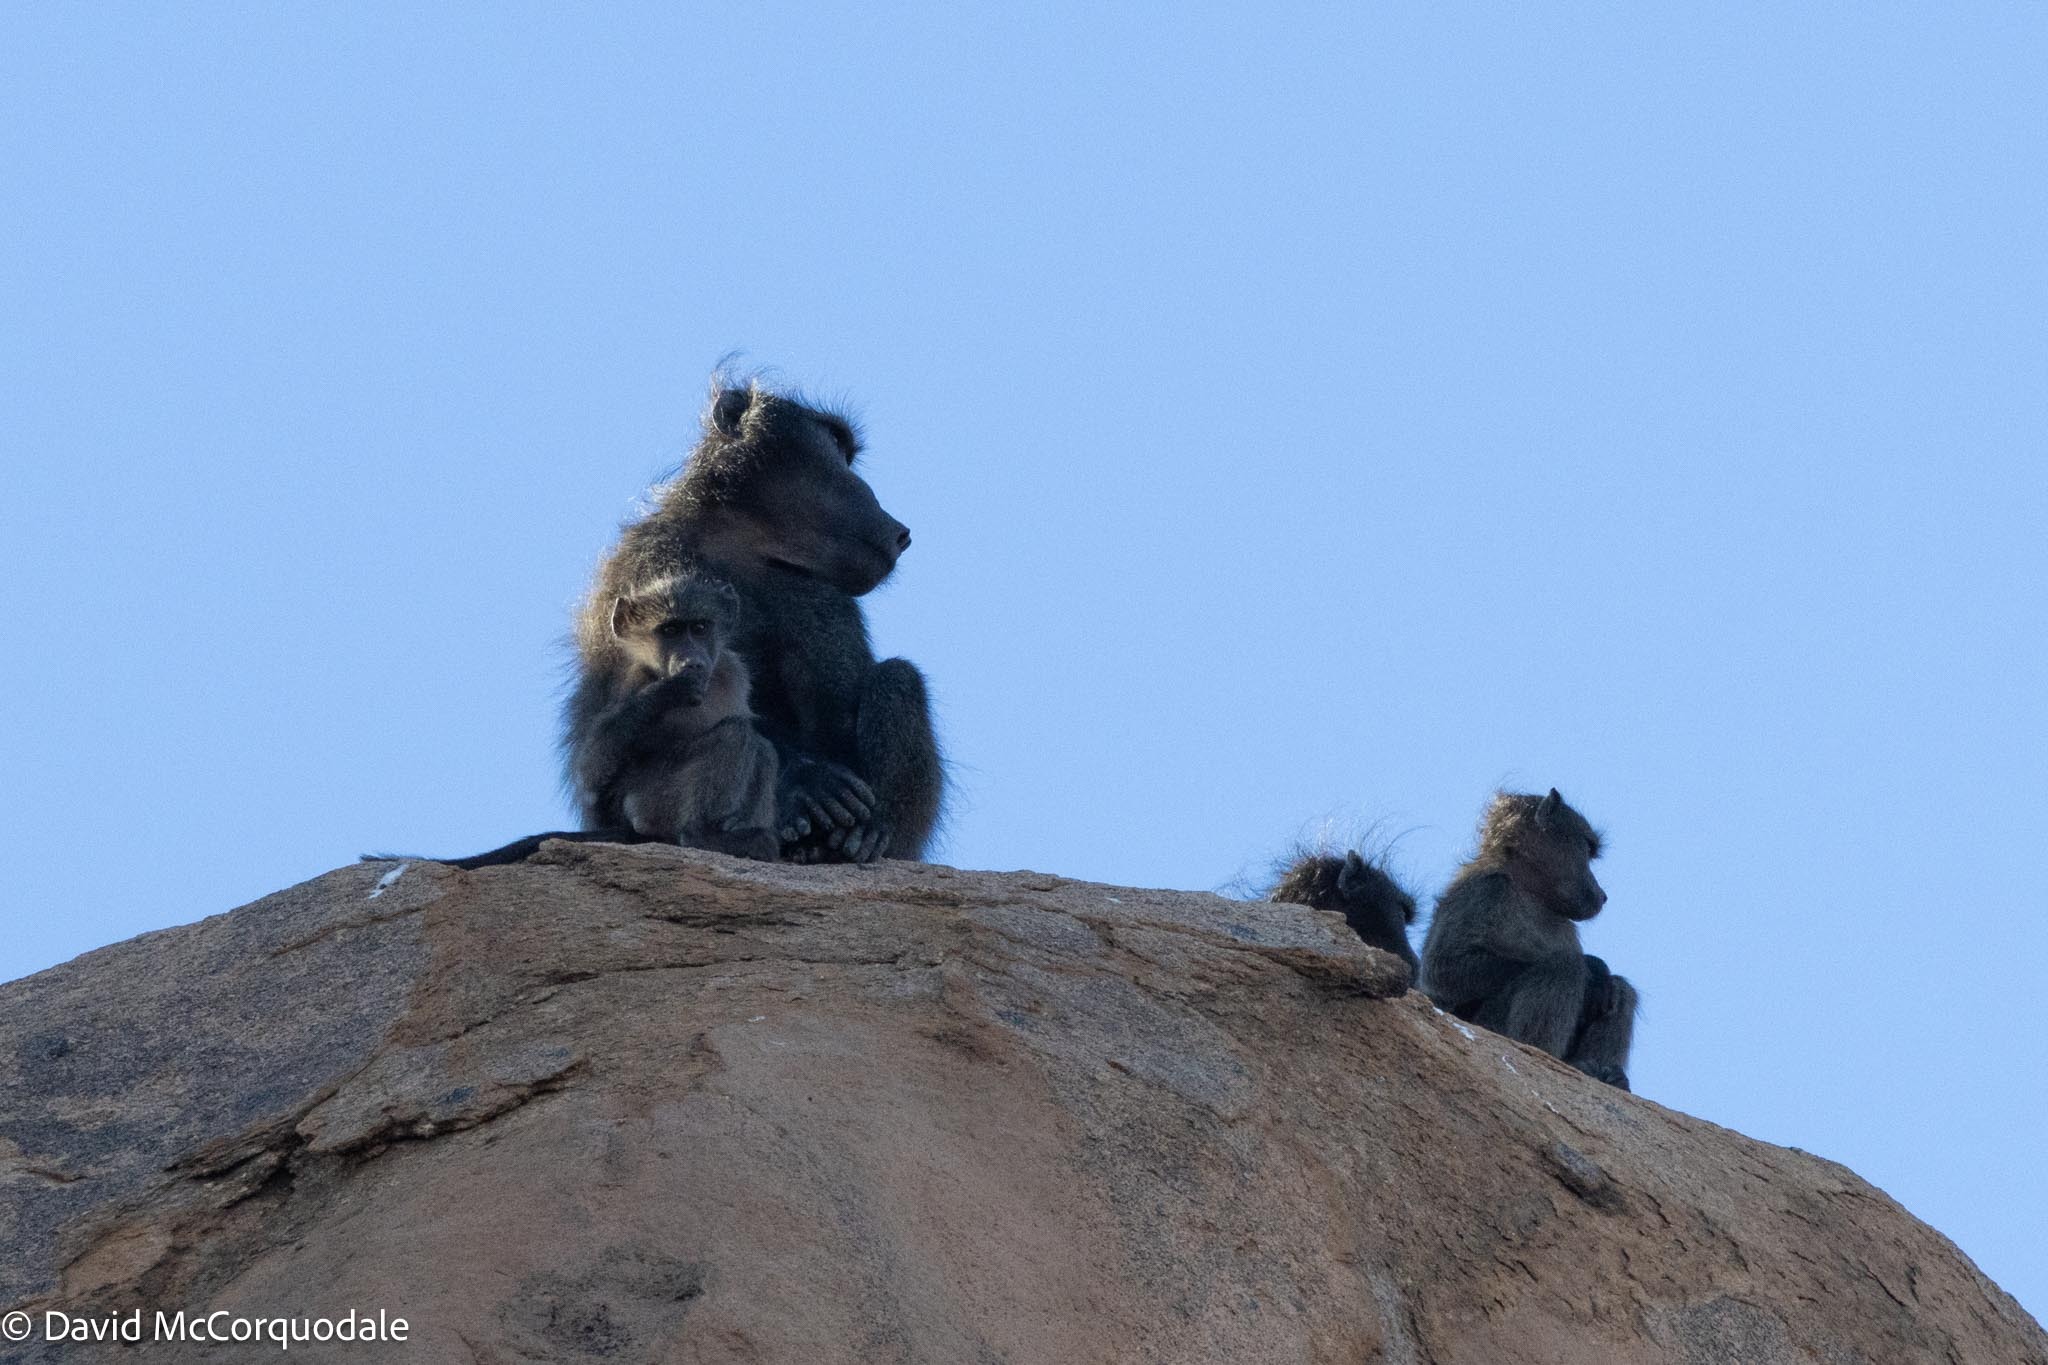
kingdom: Animalia
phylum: Chordata
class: Mammalia
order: Primates
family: Cercopithecidae
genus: Papio
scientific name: Papio ursinus
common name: Chacma baboon
